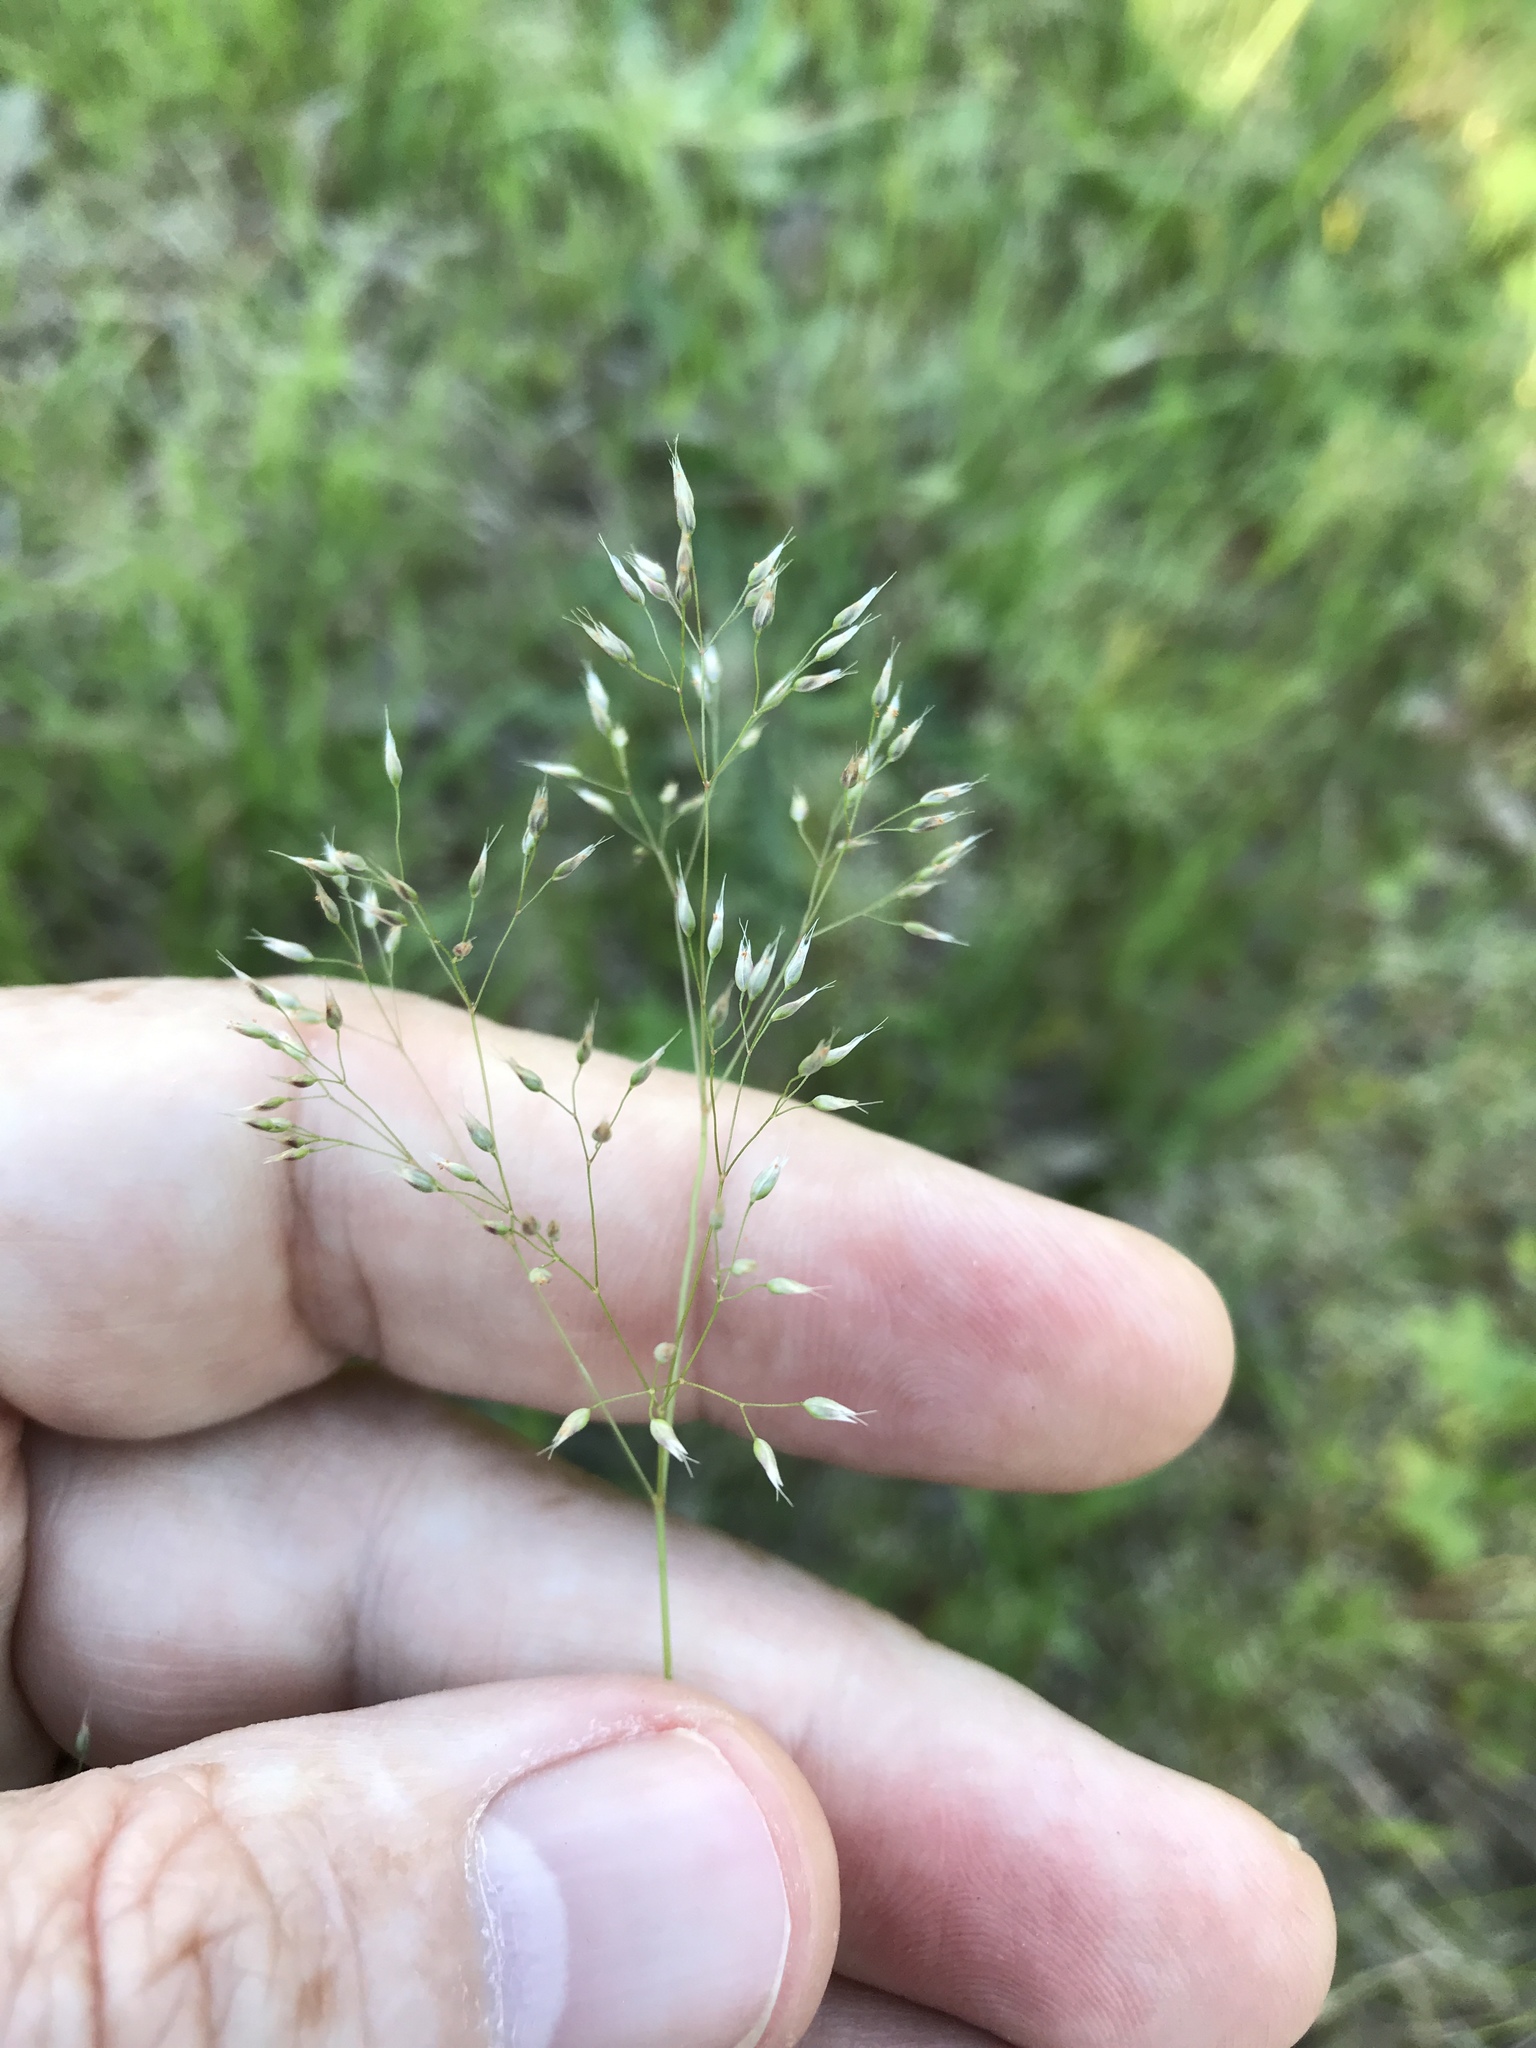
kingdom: Plantae
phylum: Tracheophyta
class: Liliopsida
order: Poales
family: Poaceae
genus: Aira
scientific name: Aira caryophyllea
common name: Silver hairgrass
